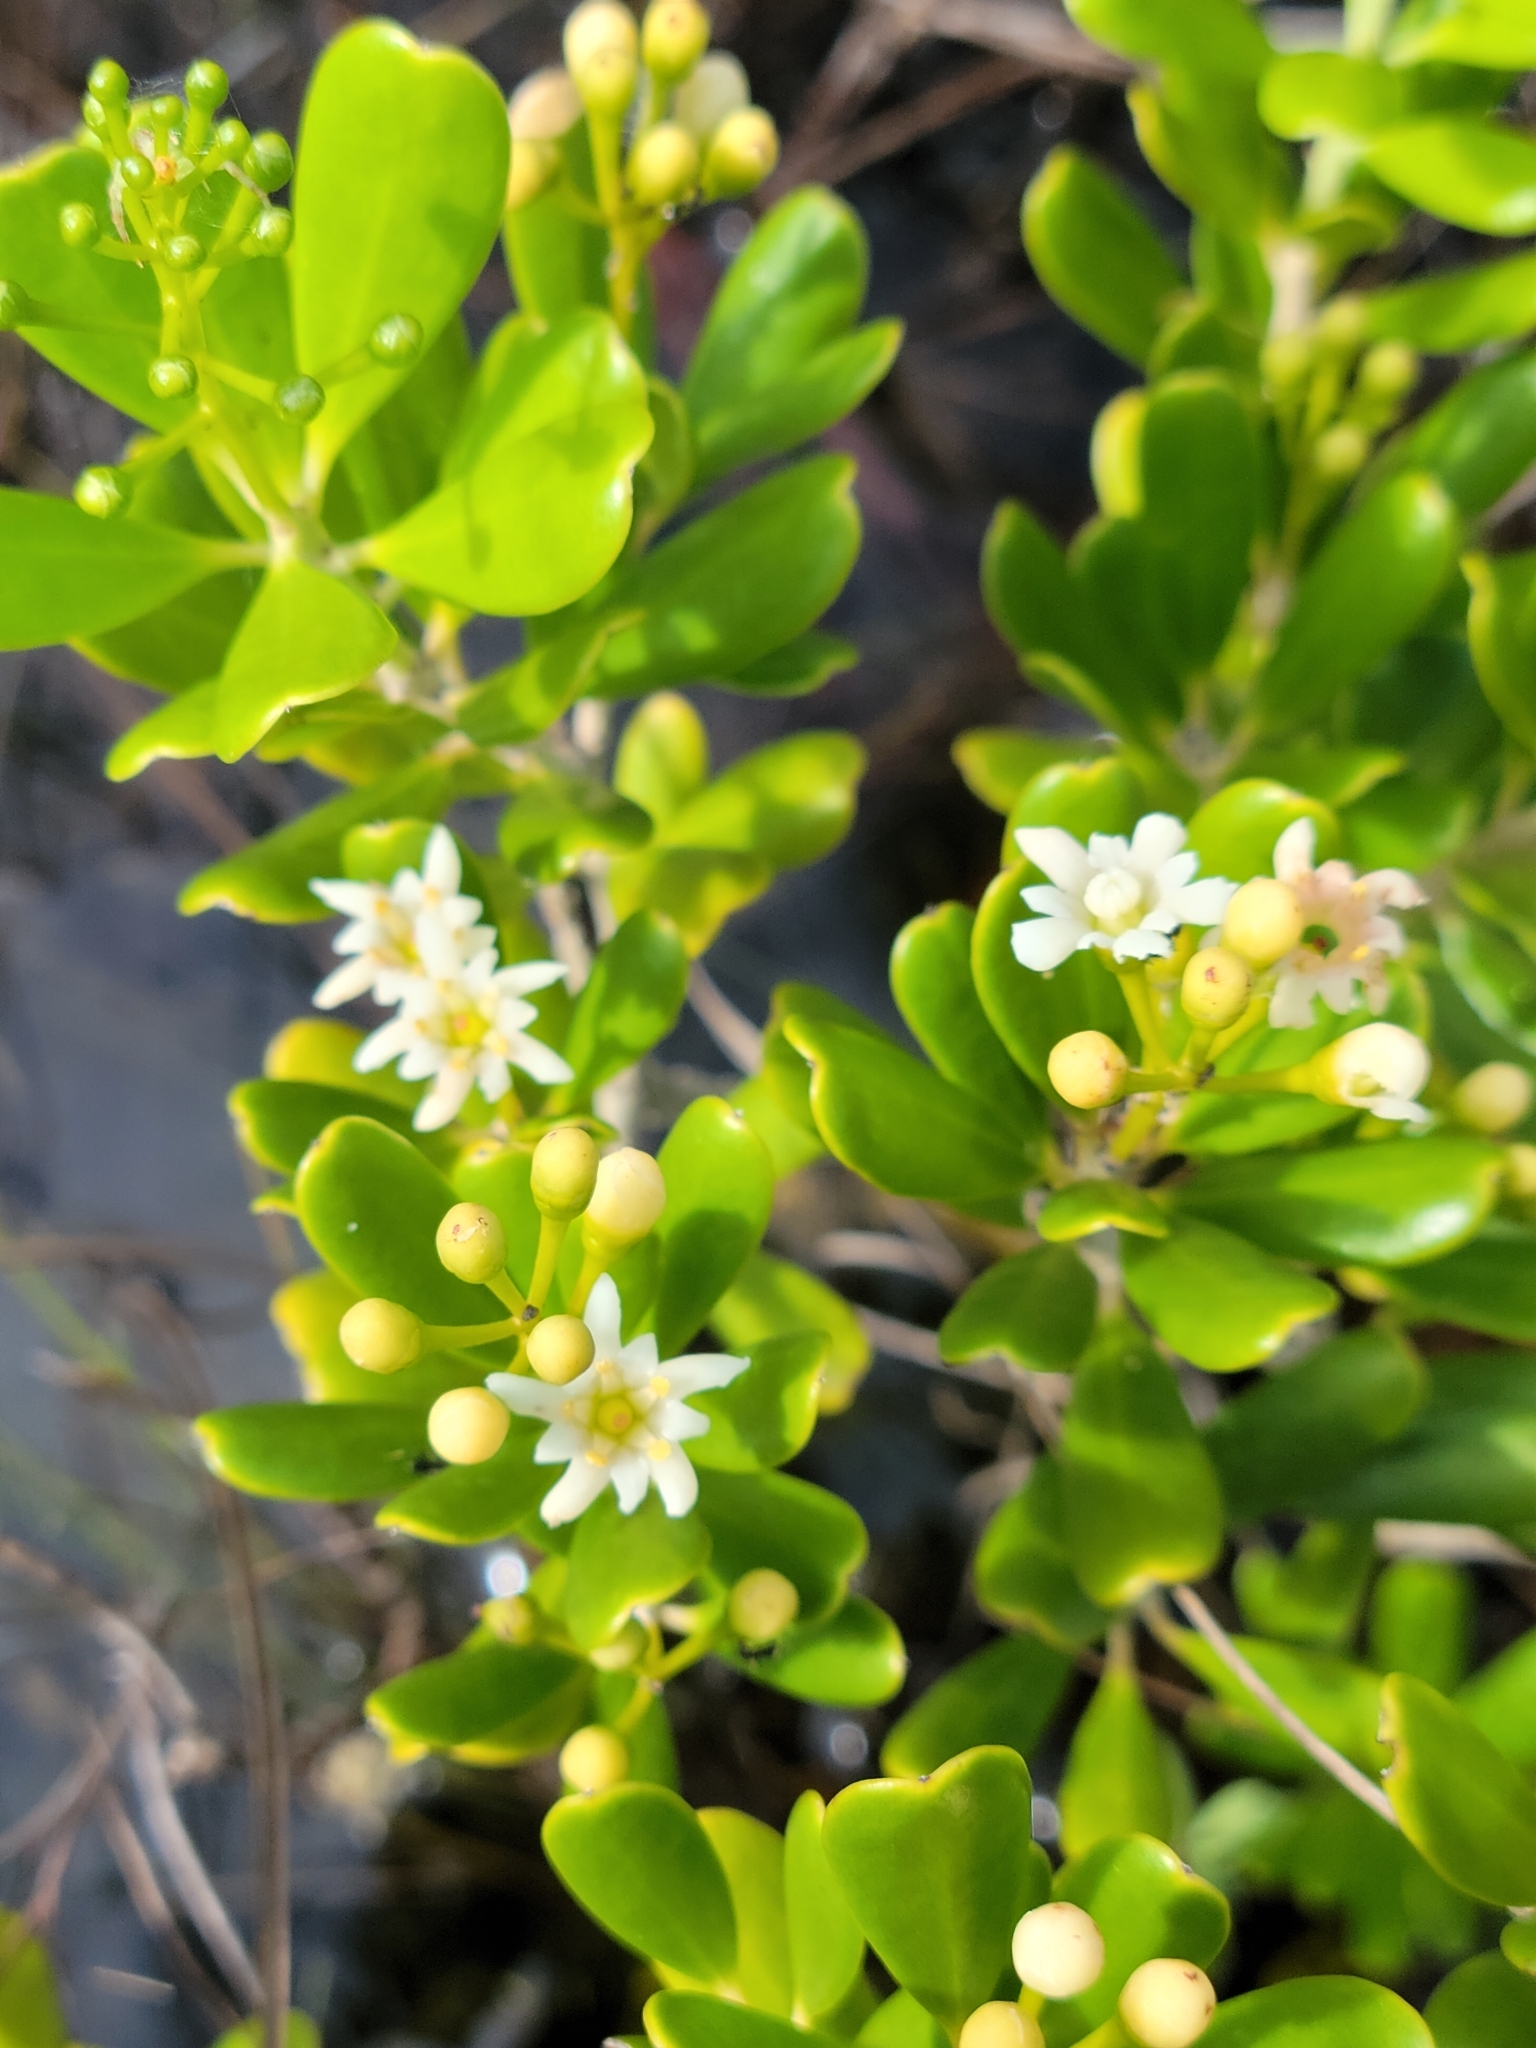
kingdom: Plantae
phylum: Tracheophyta
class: Magnoliopsida
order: Ericales
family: Primulaceae
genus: Jacquinia
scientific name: Jacquinia keyensis
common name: Joebush
